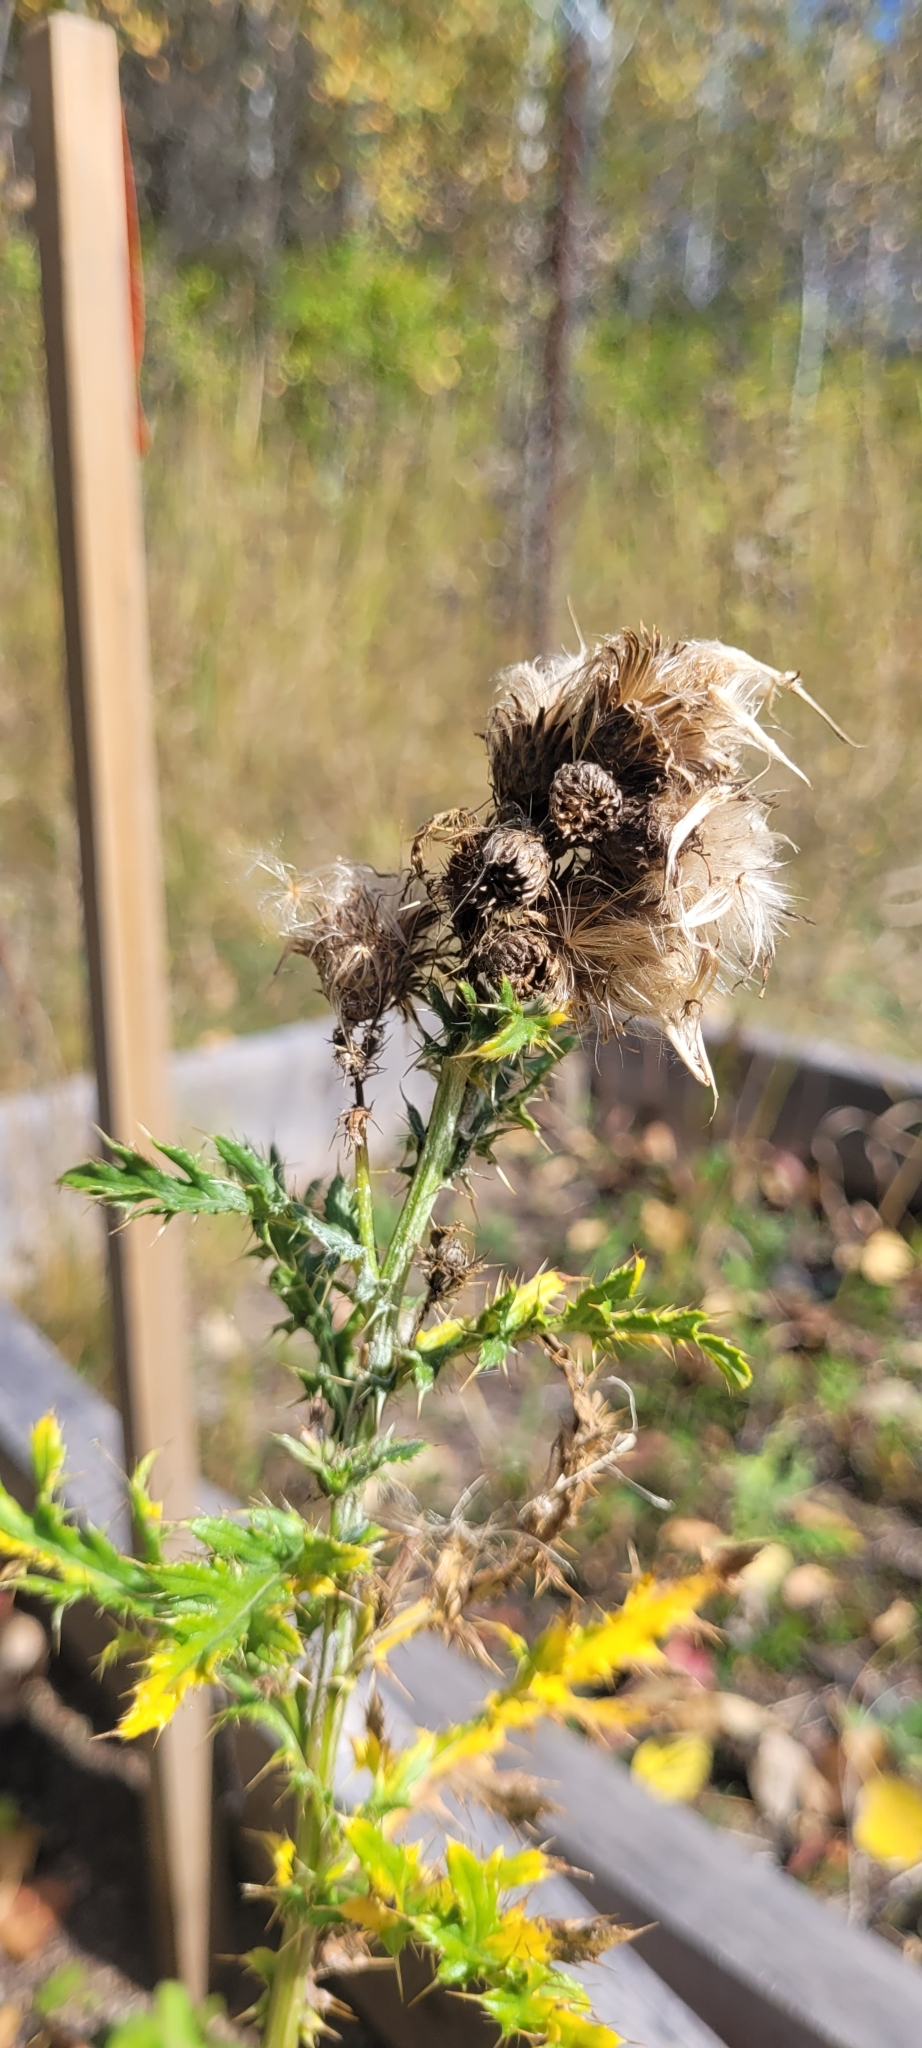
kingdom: Plantae
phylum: Tracheophyta
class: Magnoliopsida
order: Asterales
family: Asteraceae
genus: Cirsium
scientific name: Cirsium arvense
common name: Creeping thistle
